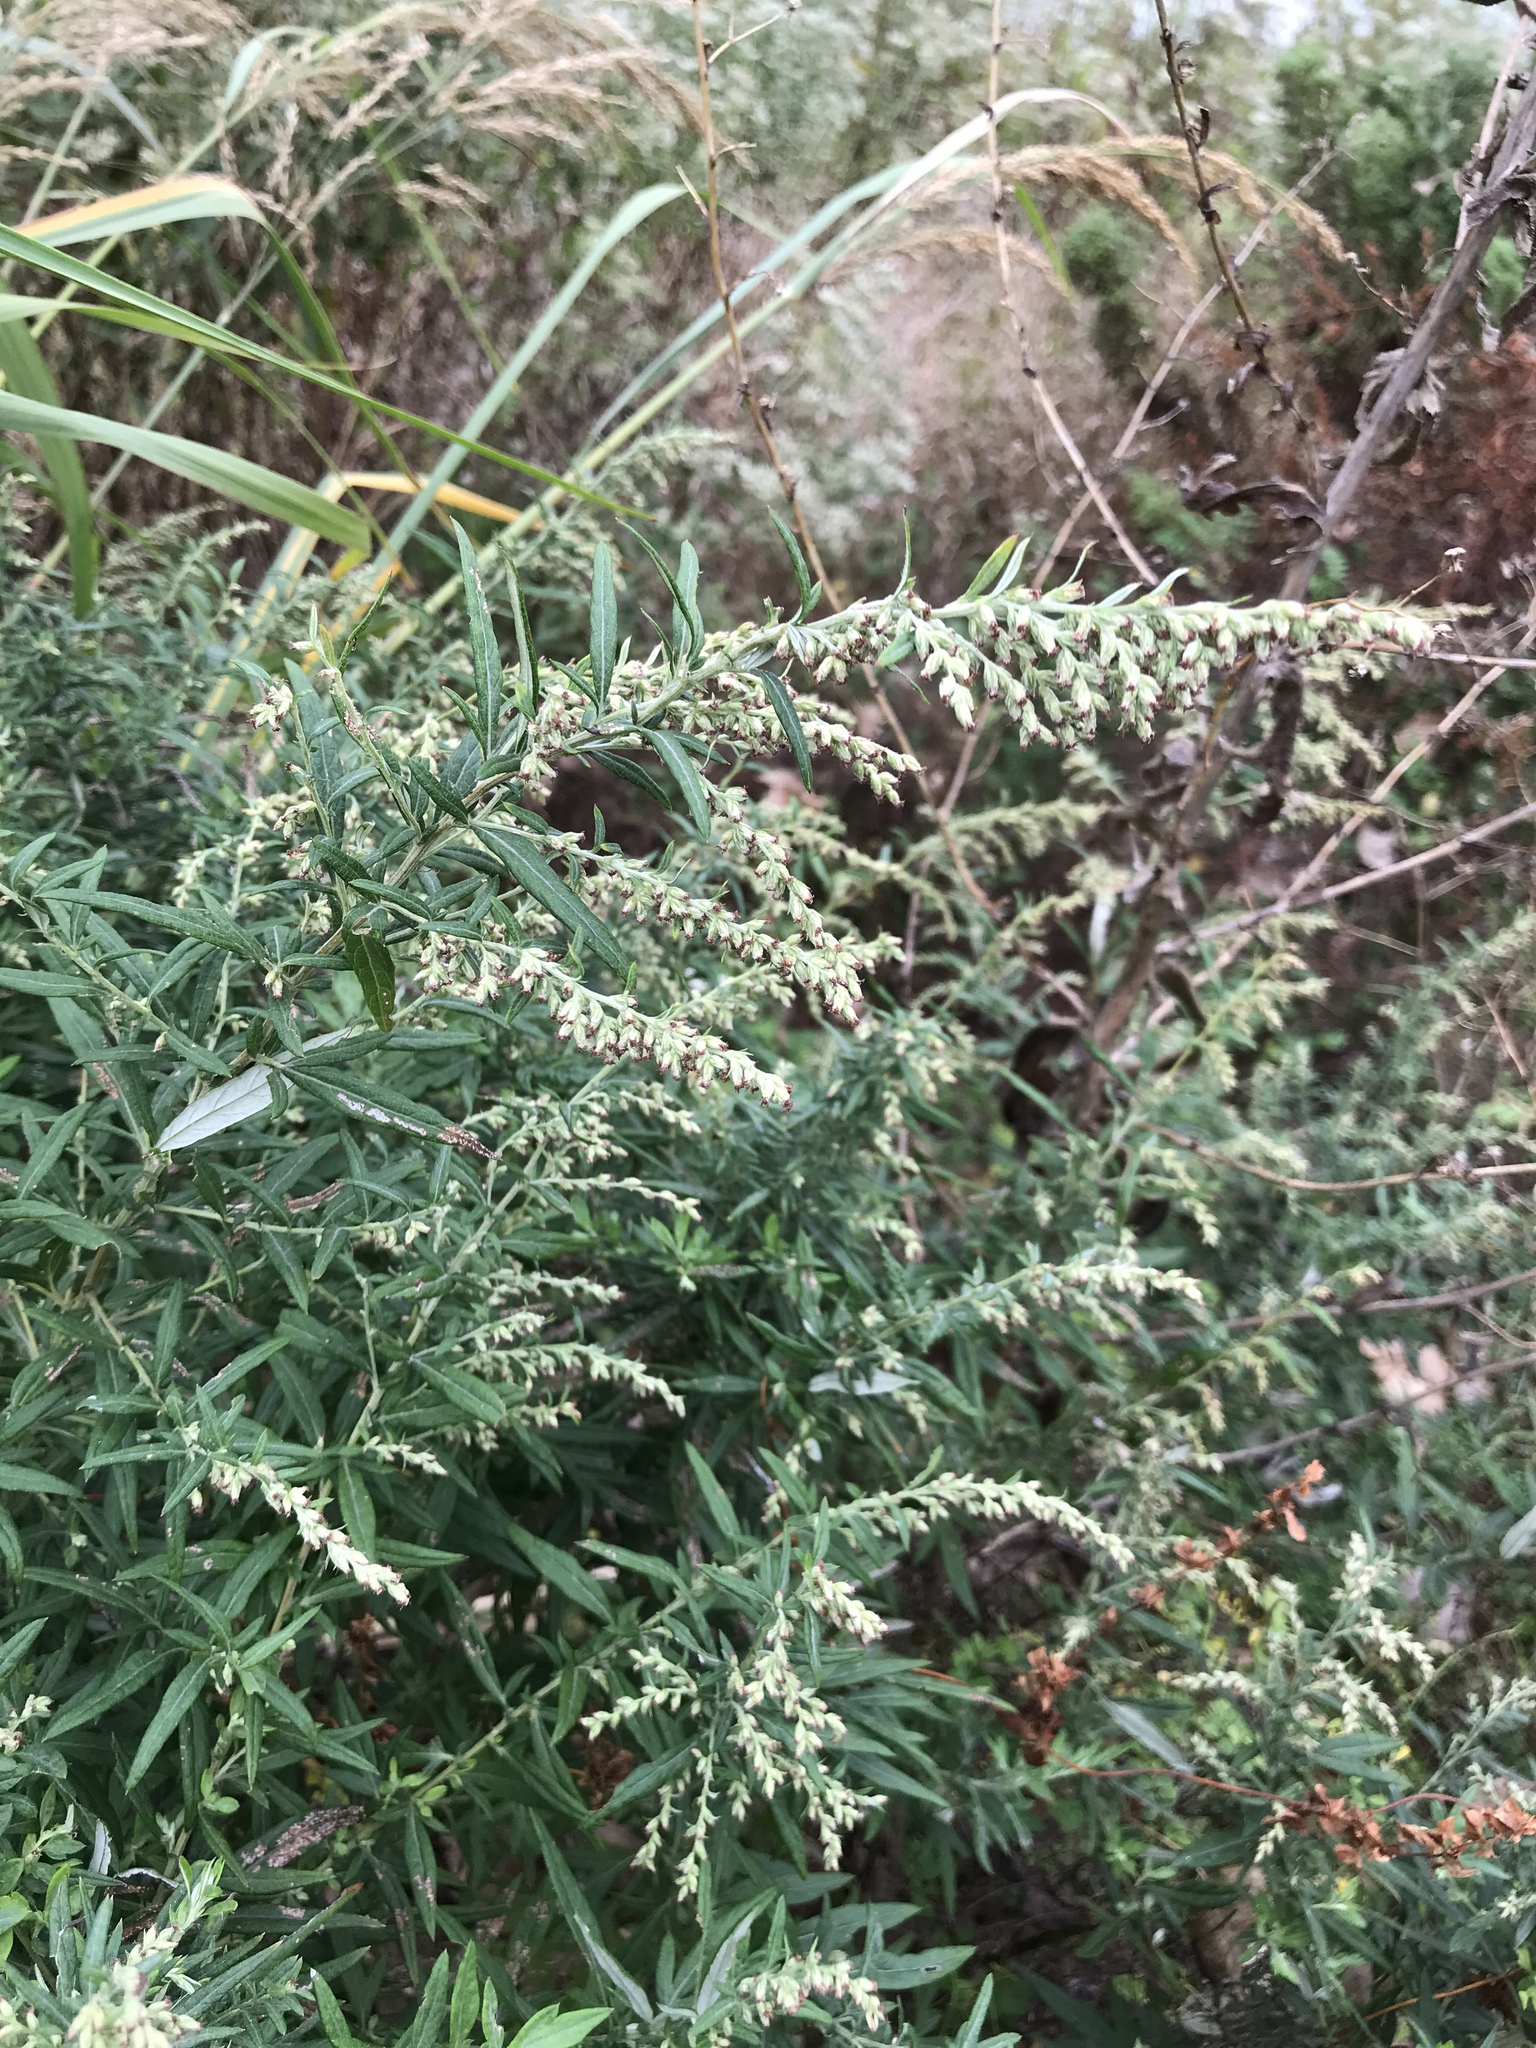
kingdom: Plantae
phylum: Tracheophyta
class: Magnoliopsida
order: Asterales
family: Asteraceae
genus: Ambrosia
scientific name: Ambrosia artemisiifolia
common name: Annual ragweed
